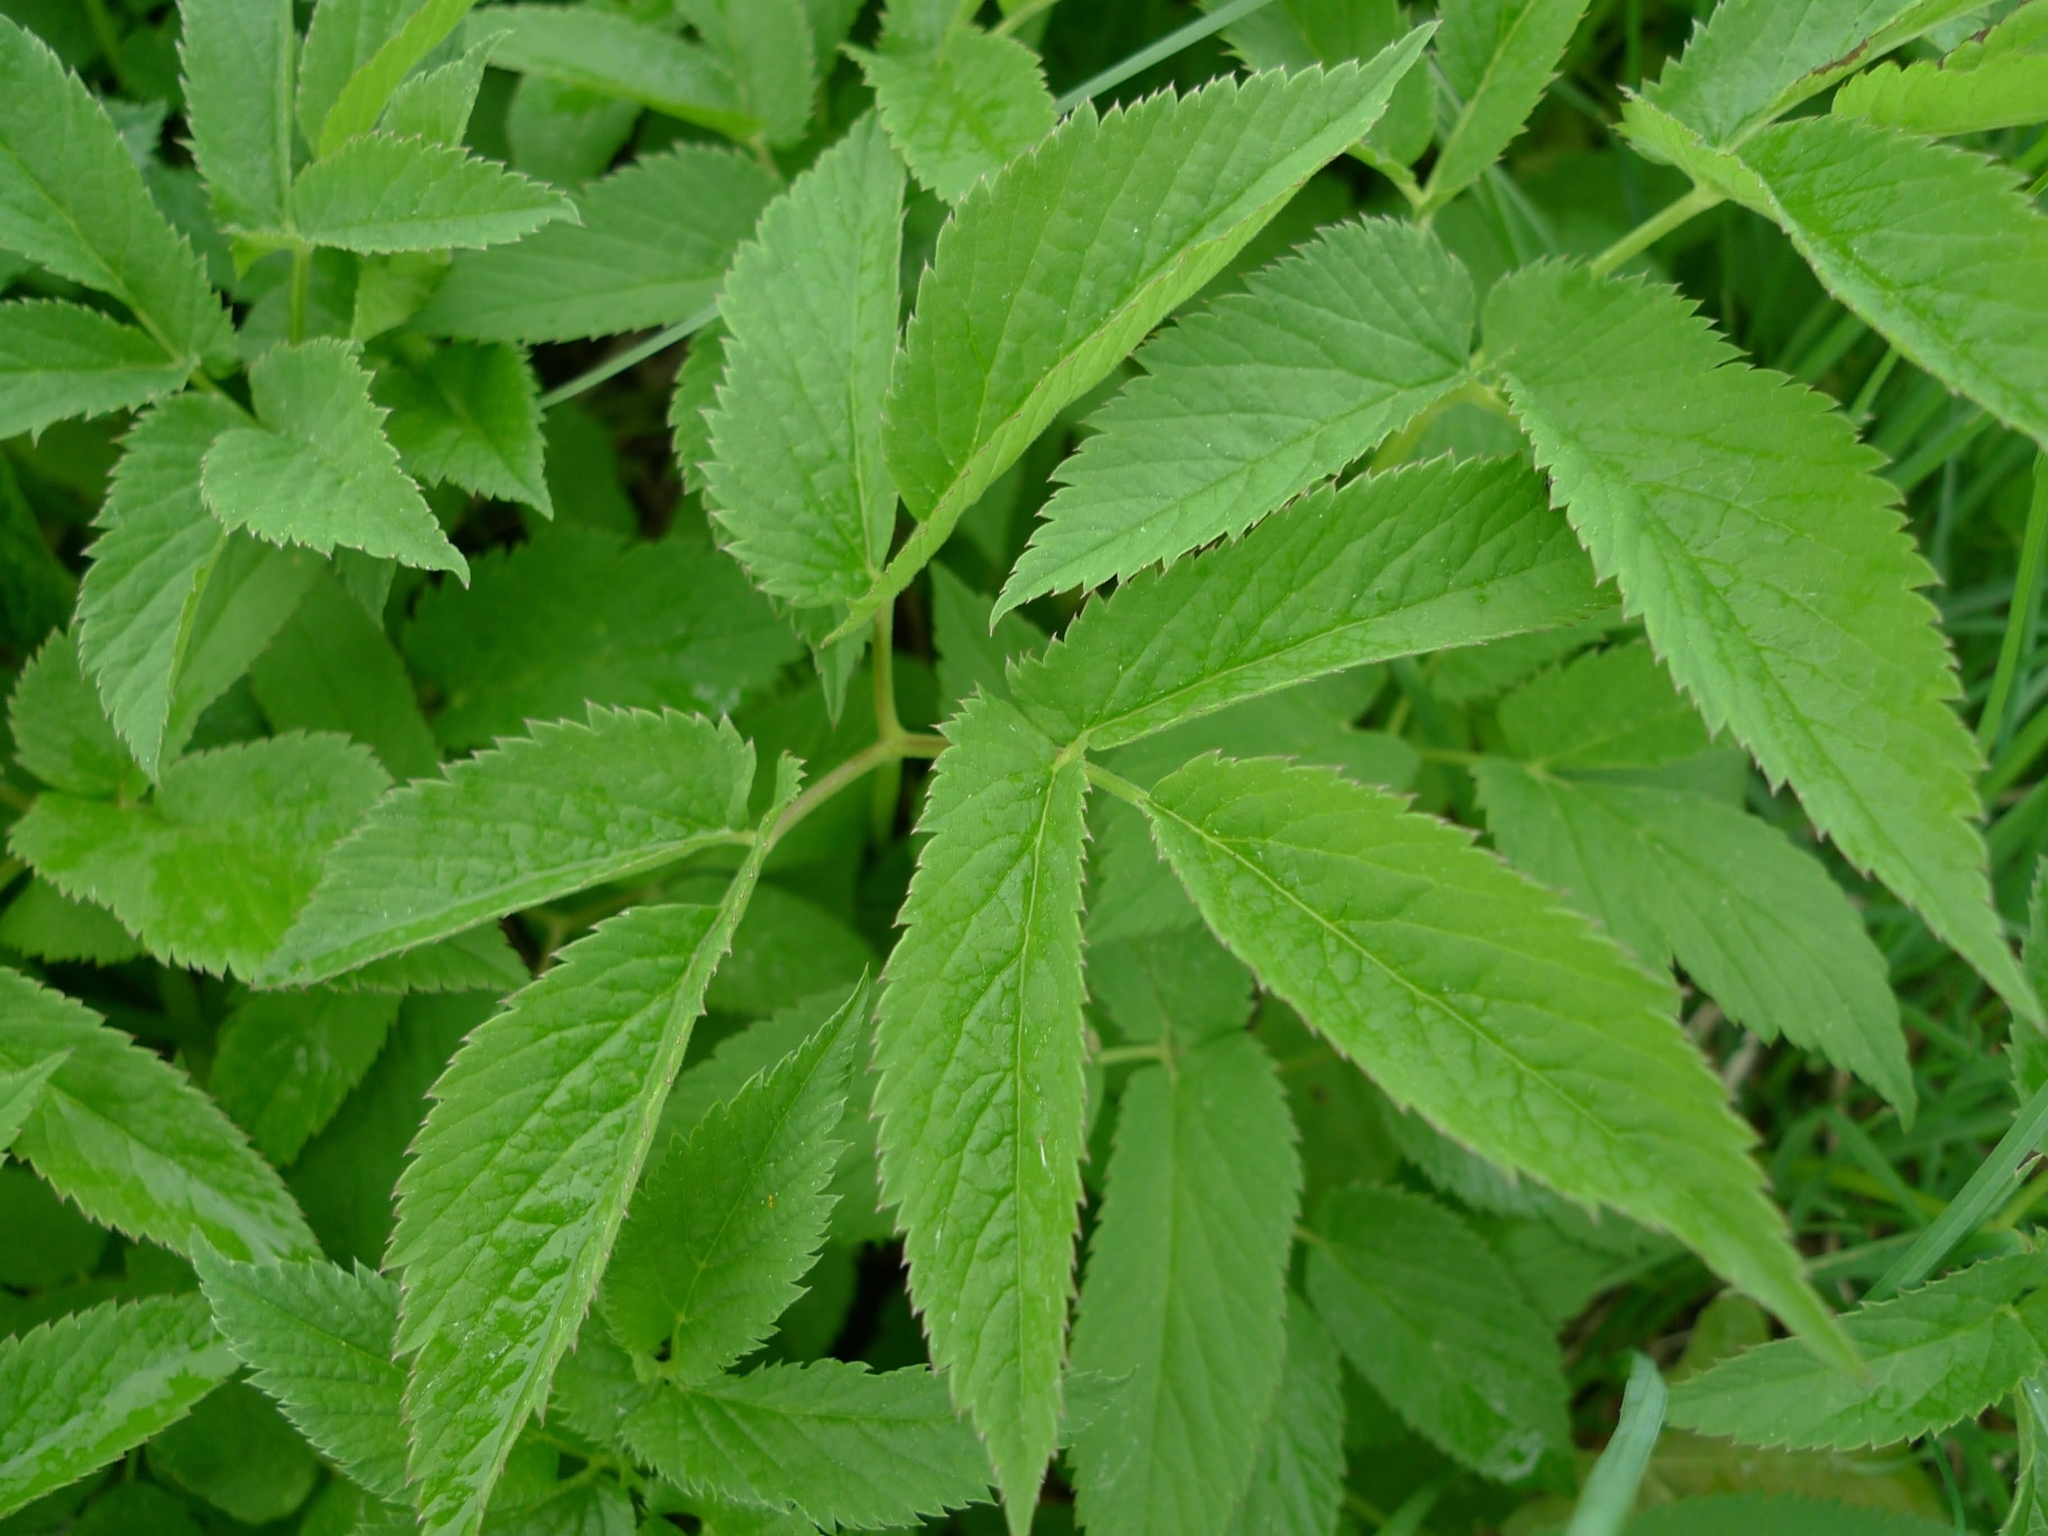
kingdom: Plantae
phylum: Tracheophyta
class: Magnoliopsida
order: Apiales
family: Apiaceae
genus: Aegopodium
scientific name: Aegopodium podagraria
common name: Ground-elder
